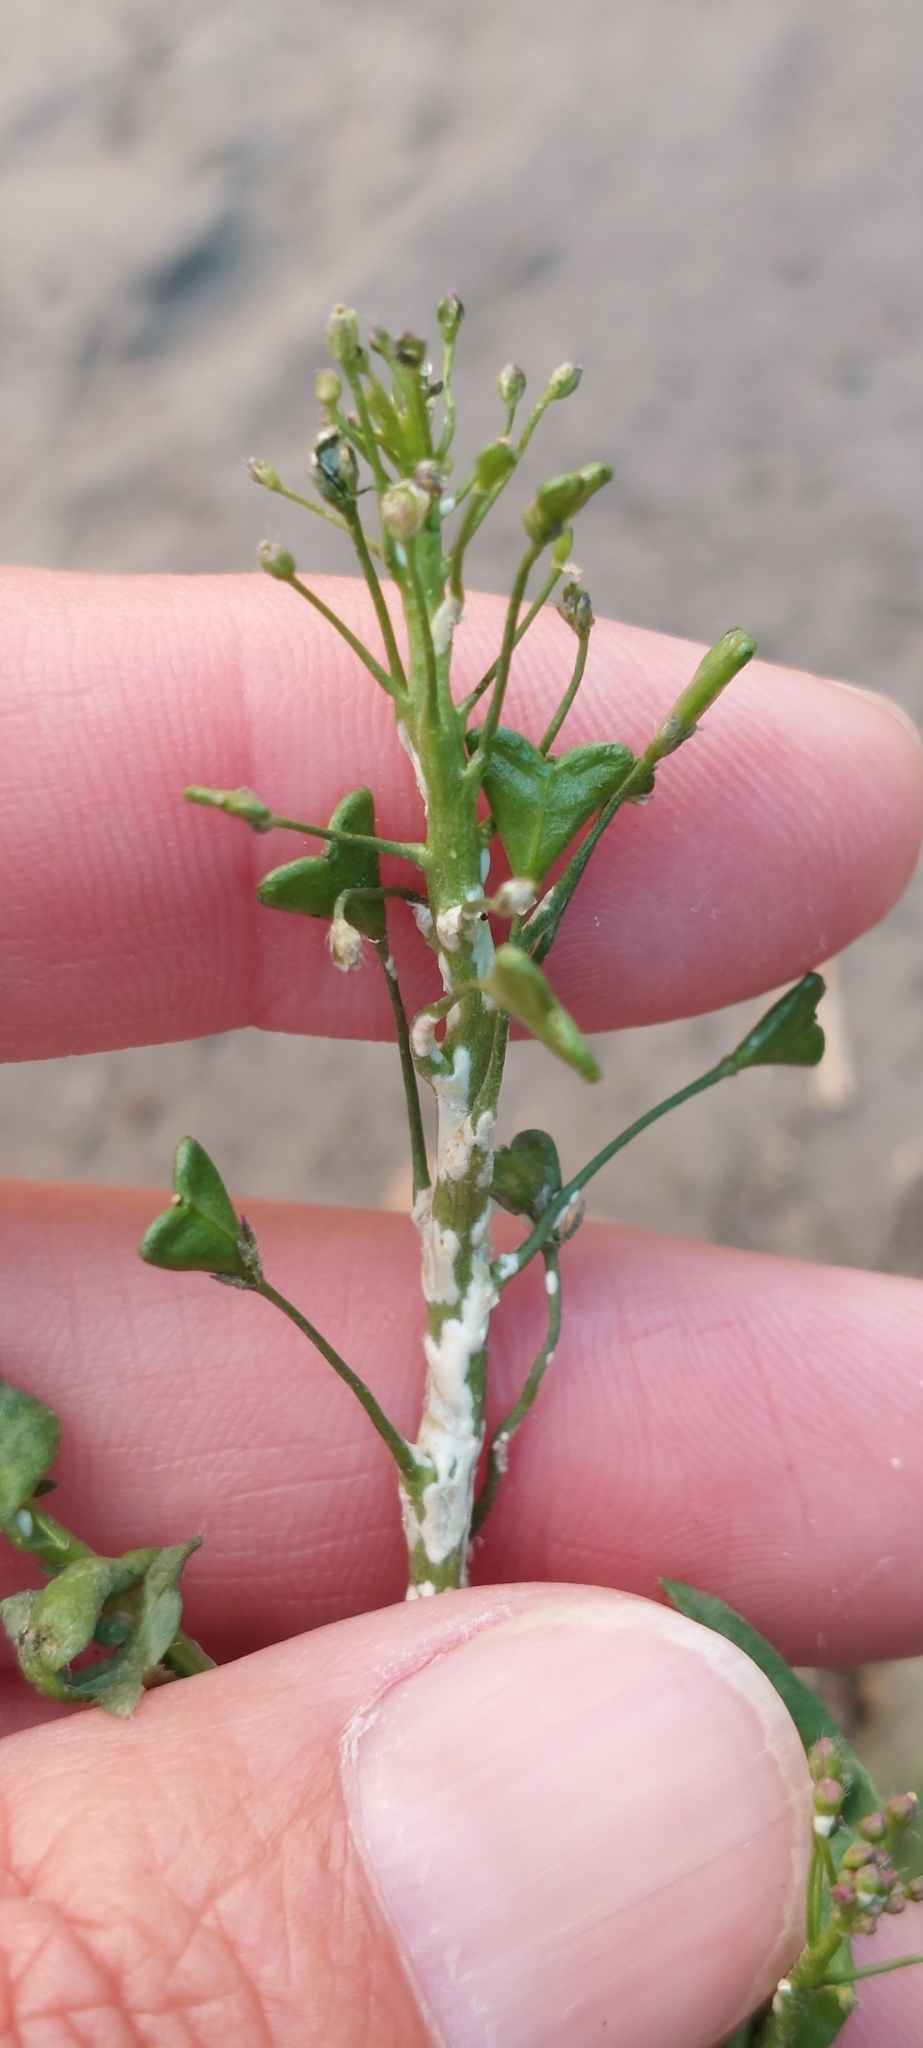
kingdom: Plantae
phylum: Tracheophyta
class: Magnoliopsida
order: Brassicales
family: Brassicaceae
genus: Capsella
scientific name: Capsella bursa-pastoris
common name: Shepherd's purse
